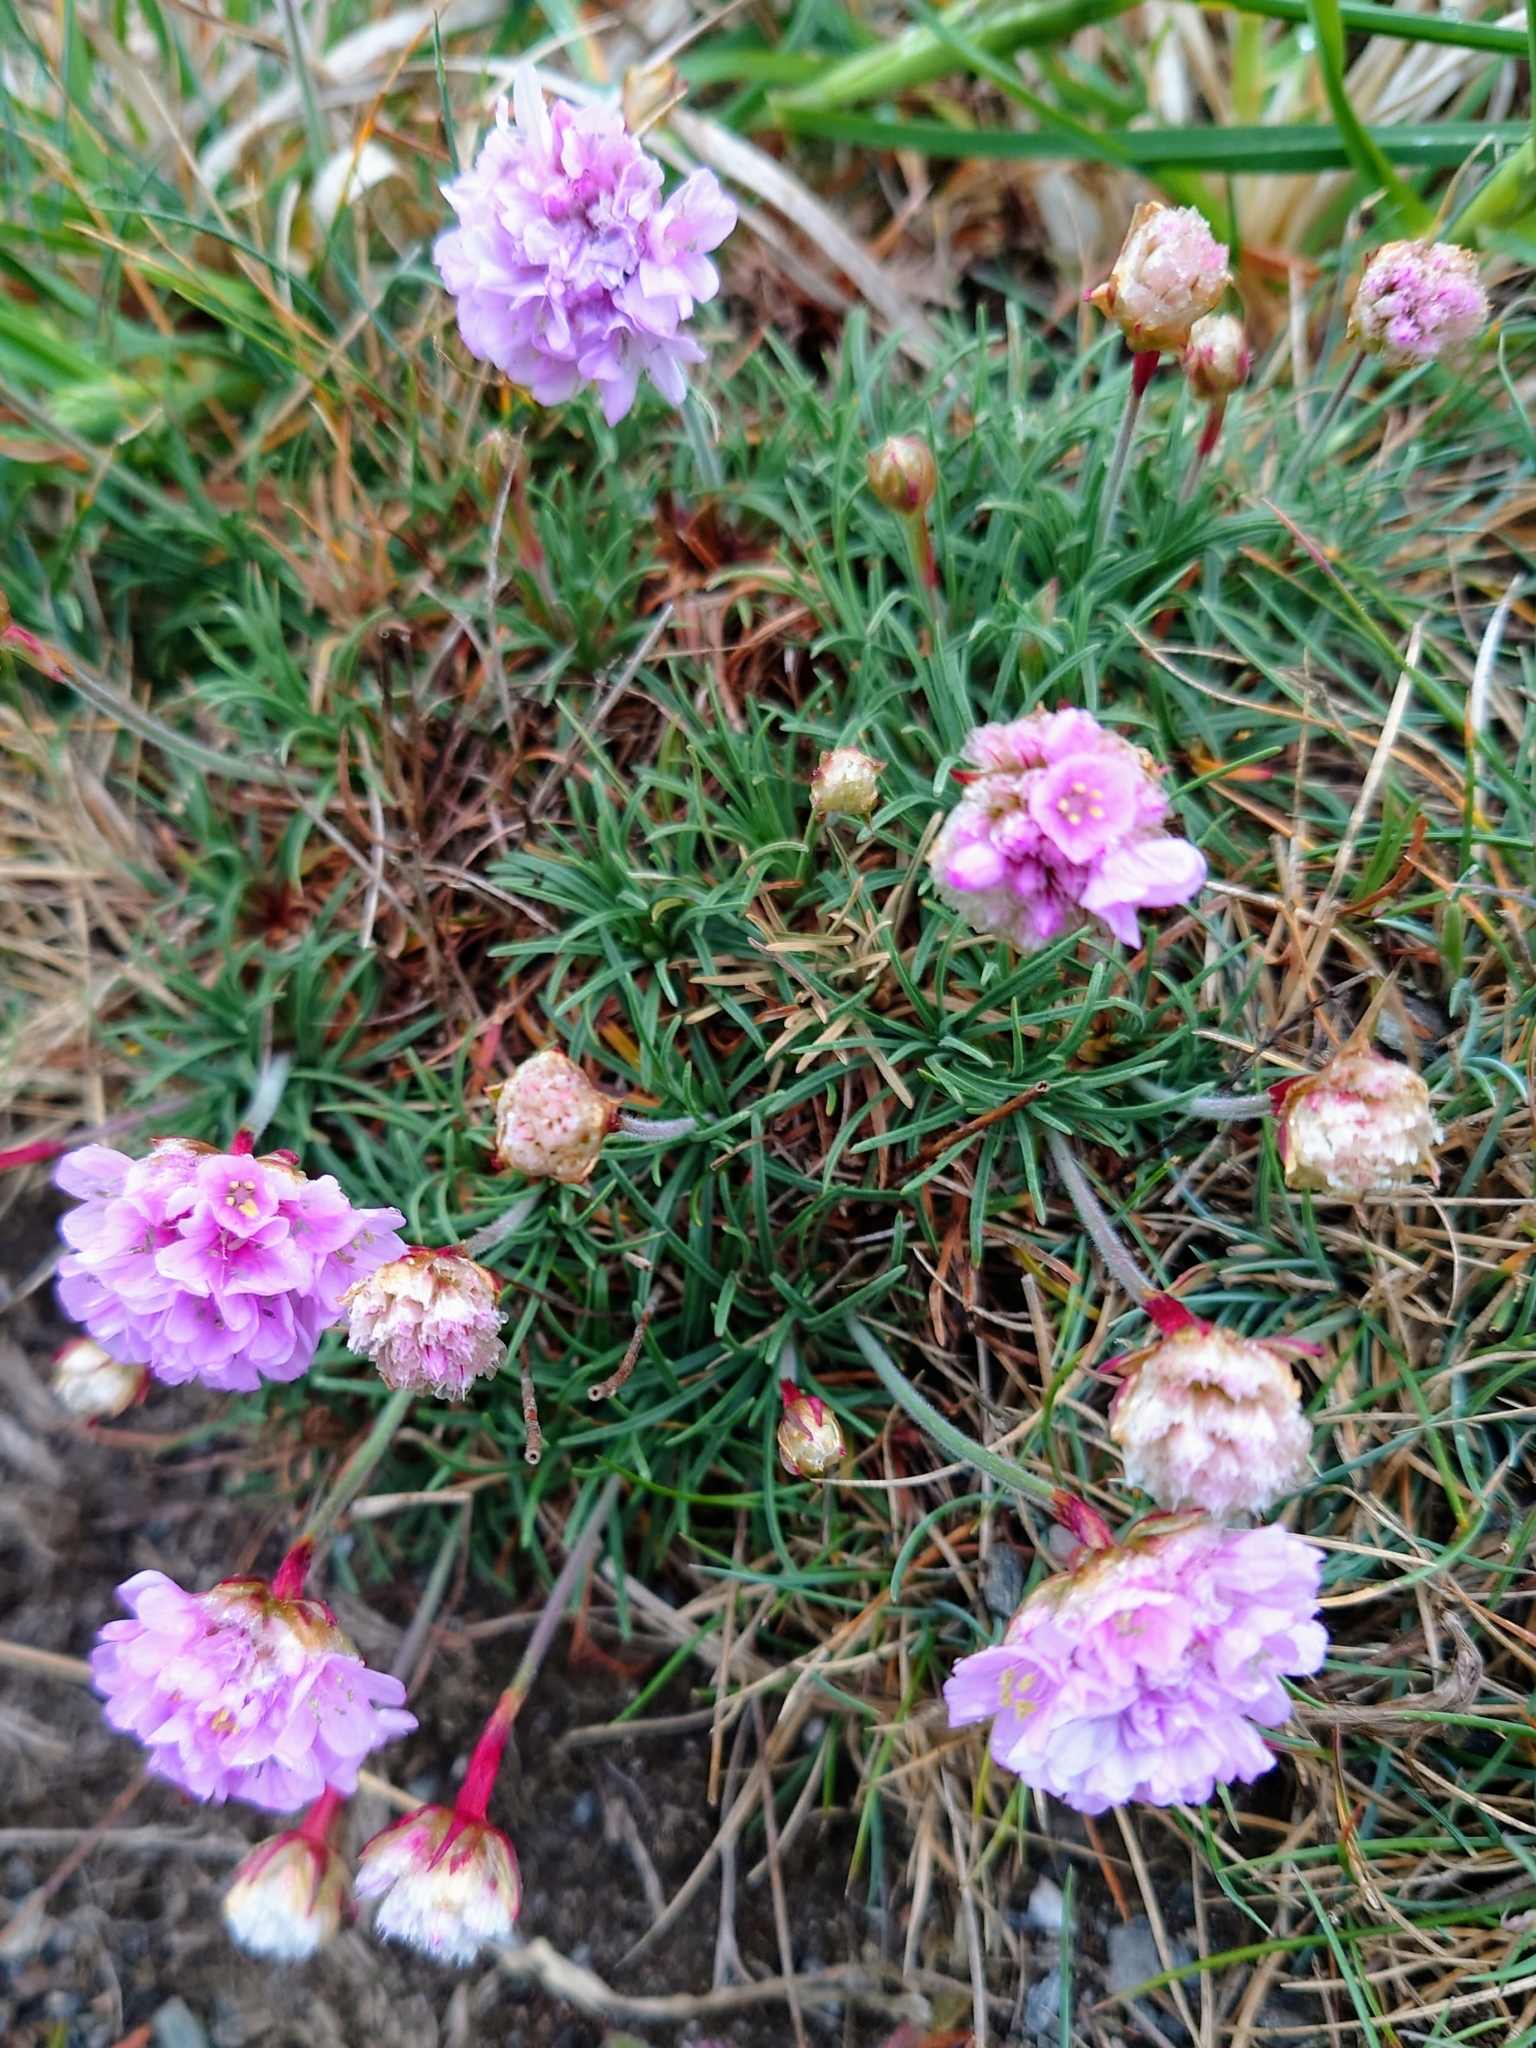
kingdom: Plantae
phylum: Tracheophyta
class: Magnoliopsida
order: Caryophyllales
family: Plumbaginaceae
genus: Armeria
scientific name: Armeria maritima
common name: Thrift
